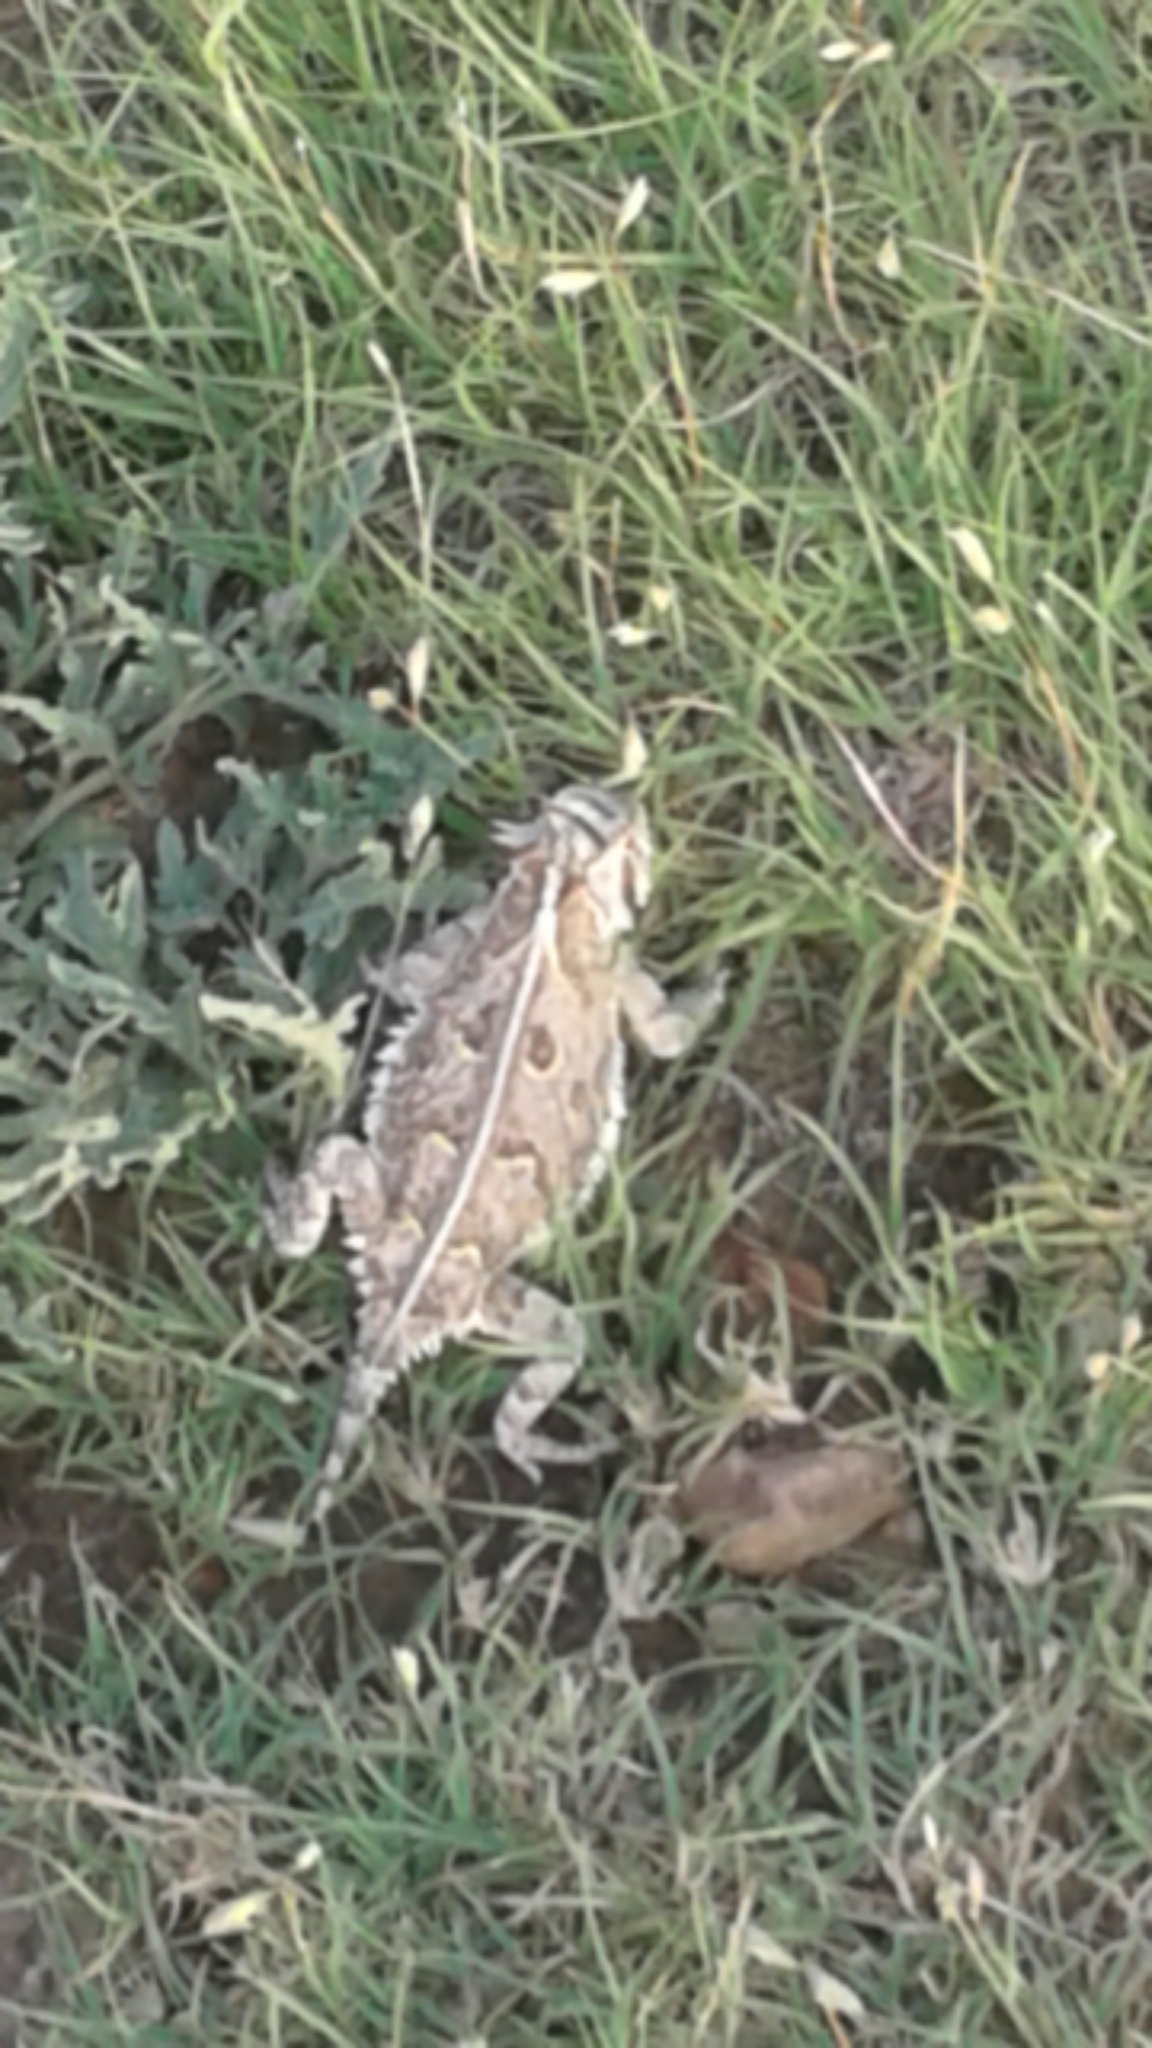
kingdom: Animalia
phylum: Chordata
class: Squamata
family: Phrynosomatidae
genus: Phrynosoma
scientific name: Phrynosoma cornutum
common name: Texas horned lizard
